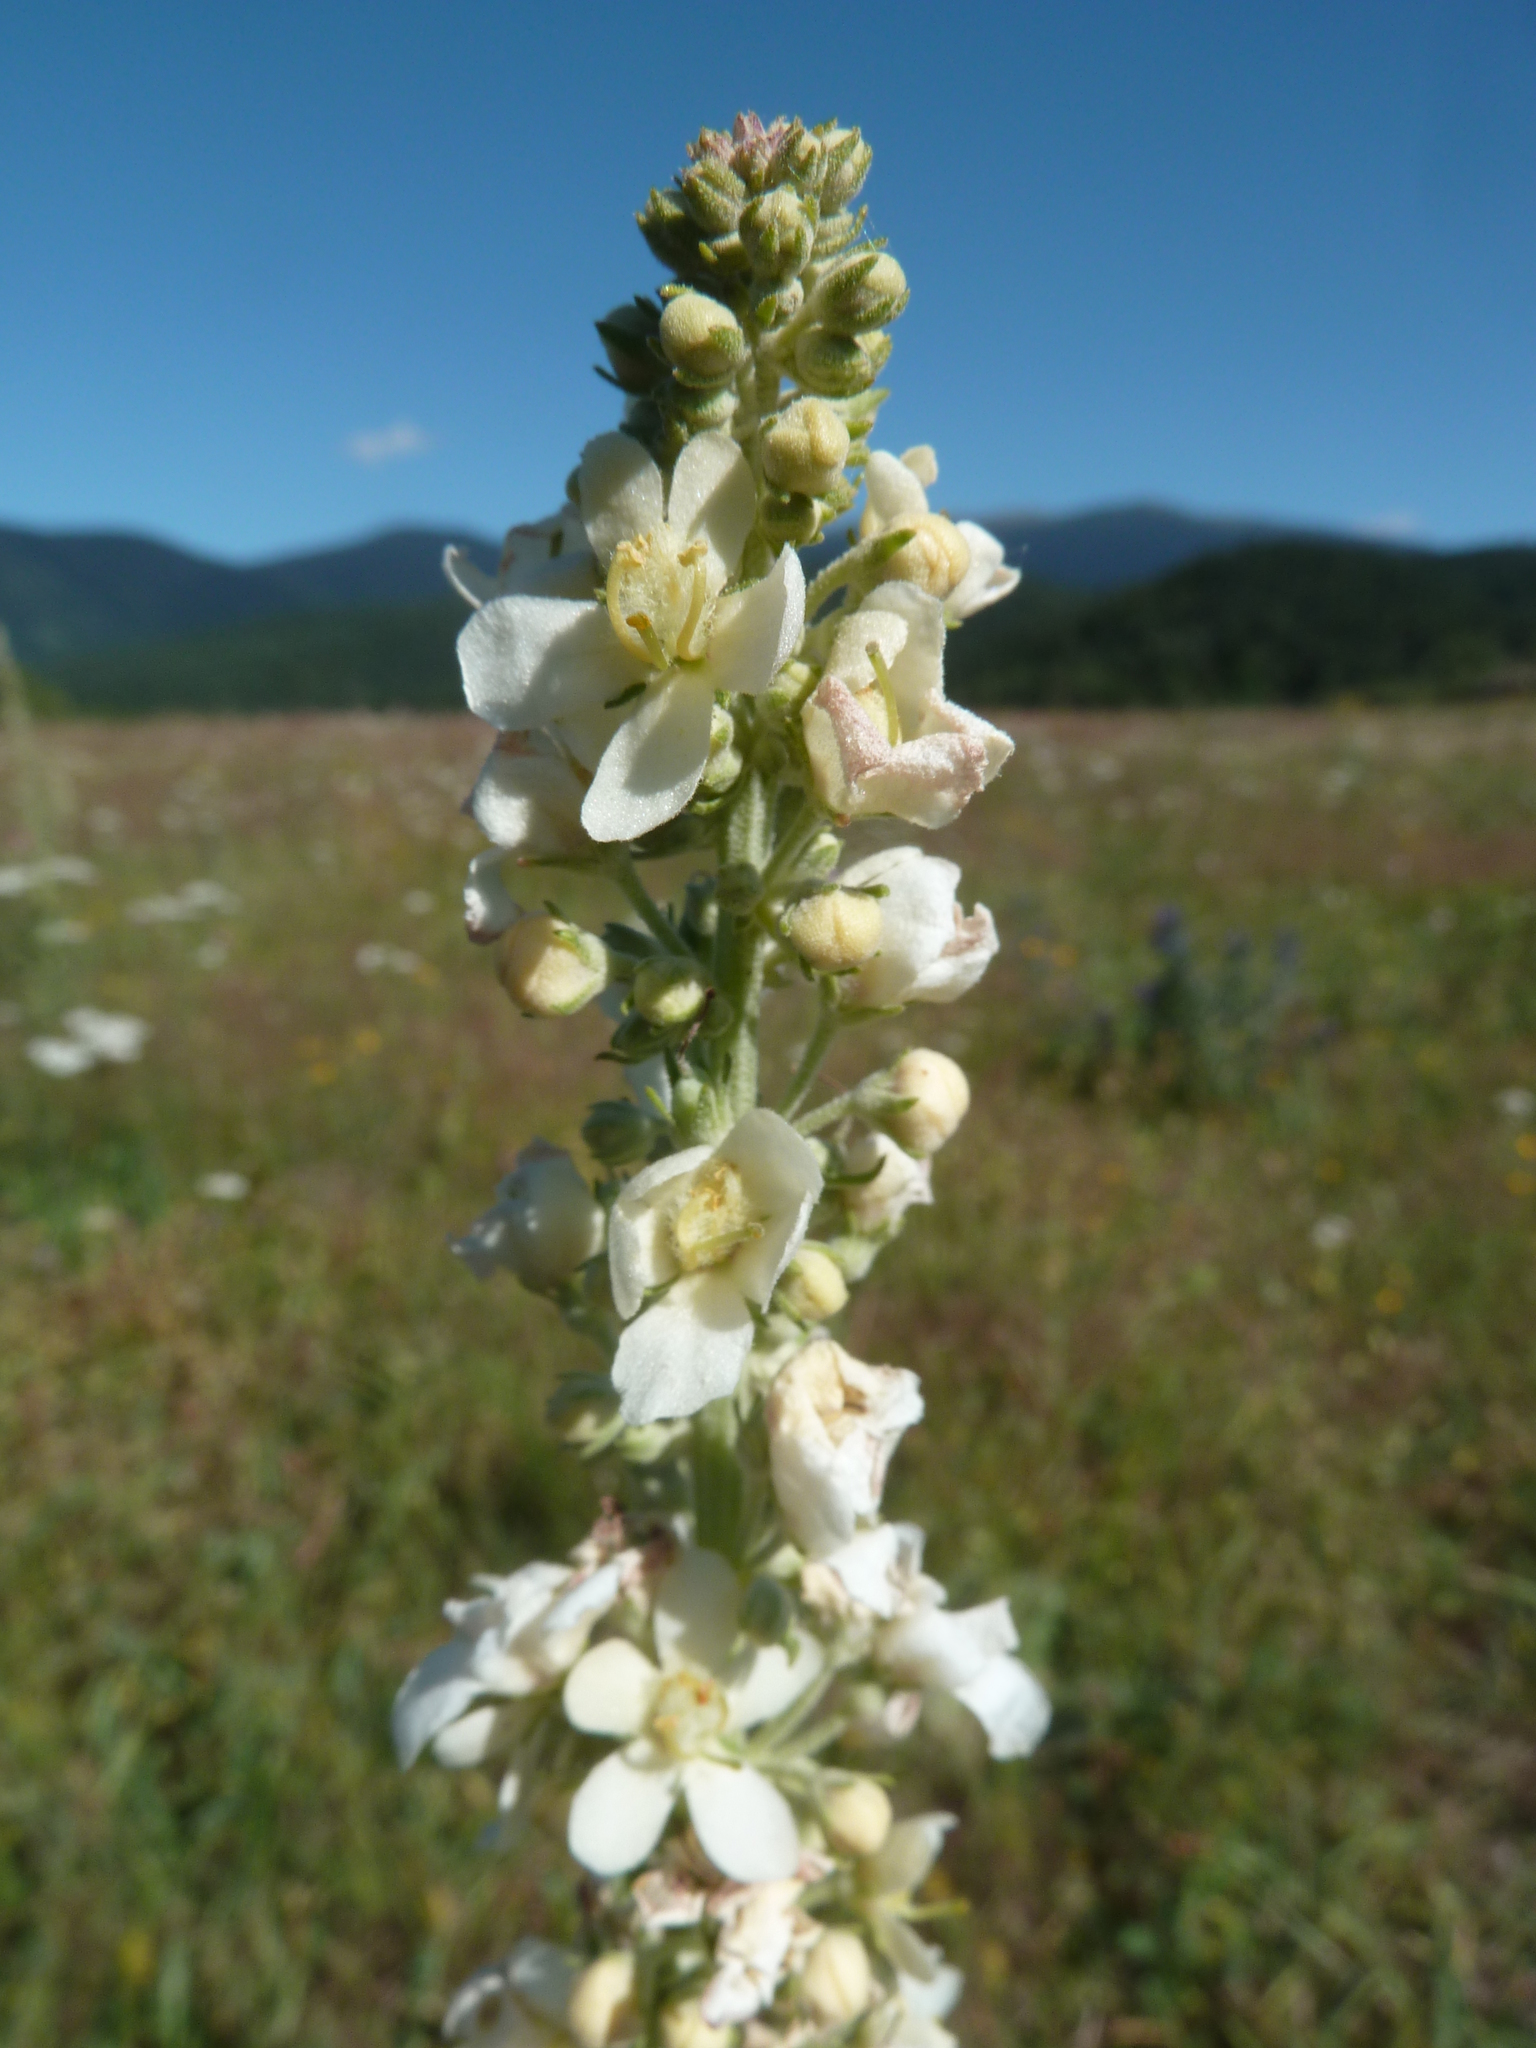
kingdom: Plantae
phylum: Tracheophyta
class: Magnoliopsida
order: Lamiales
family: Scrophulariaceae
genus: Verbascum
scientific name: Verbascum lychnitis
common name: White mullein
